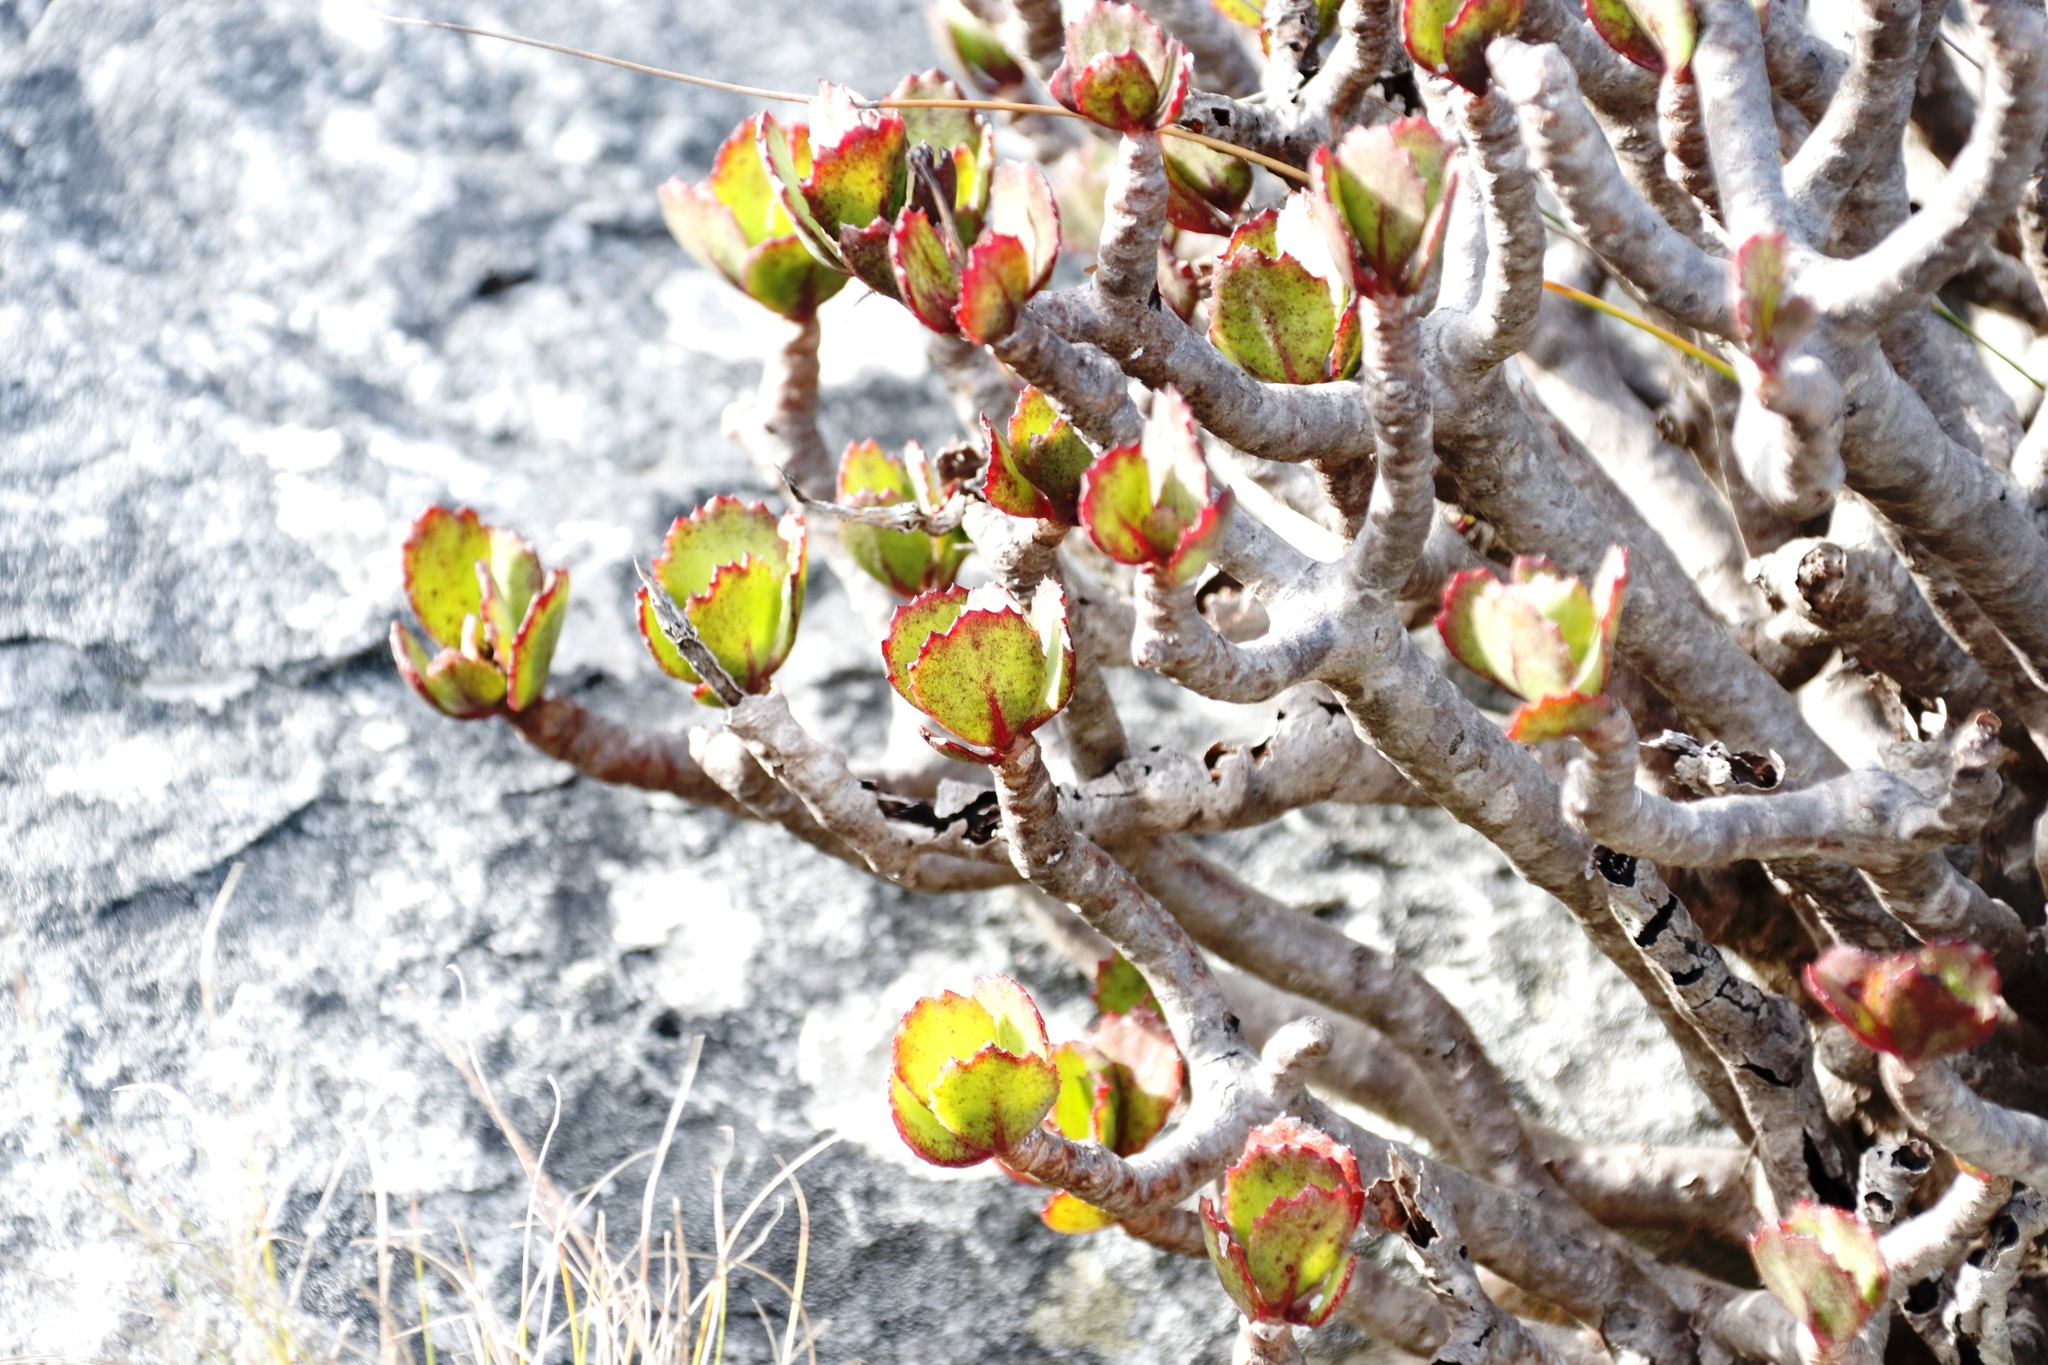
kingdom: Plantae
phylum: Tracheophyta
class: Magnoliopsida
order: Asterales
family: Asteraceae
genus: Othonna
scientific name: Othonna dentata
